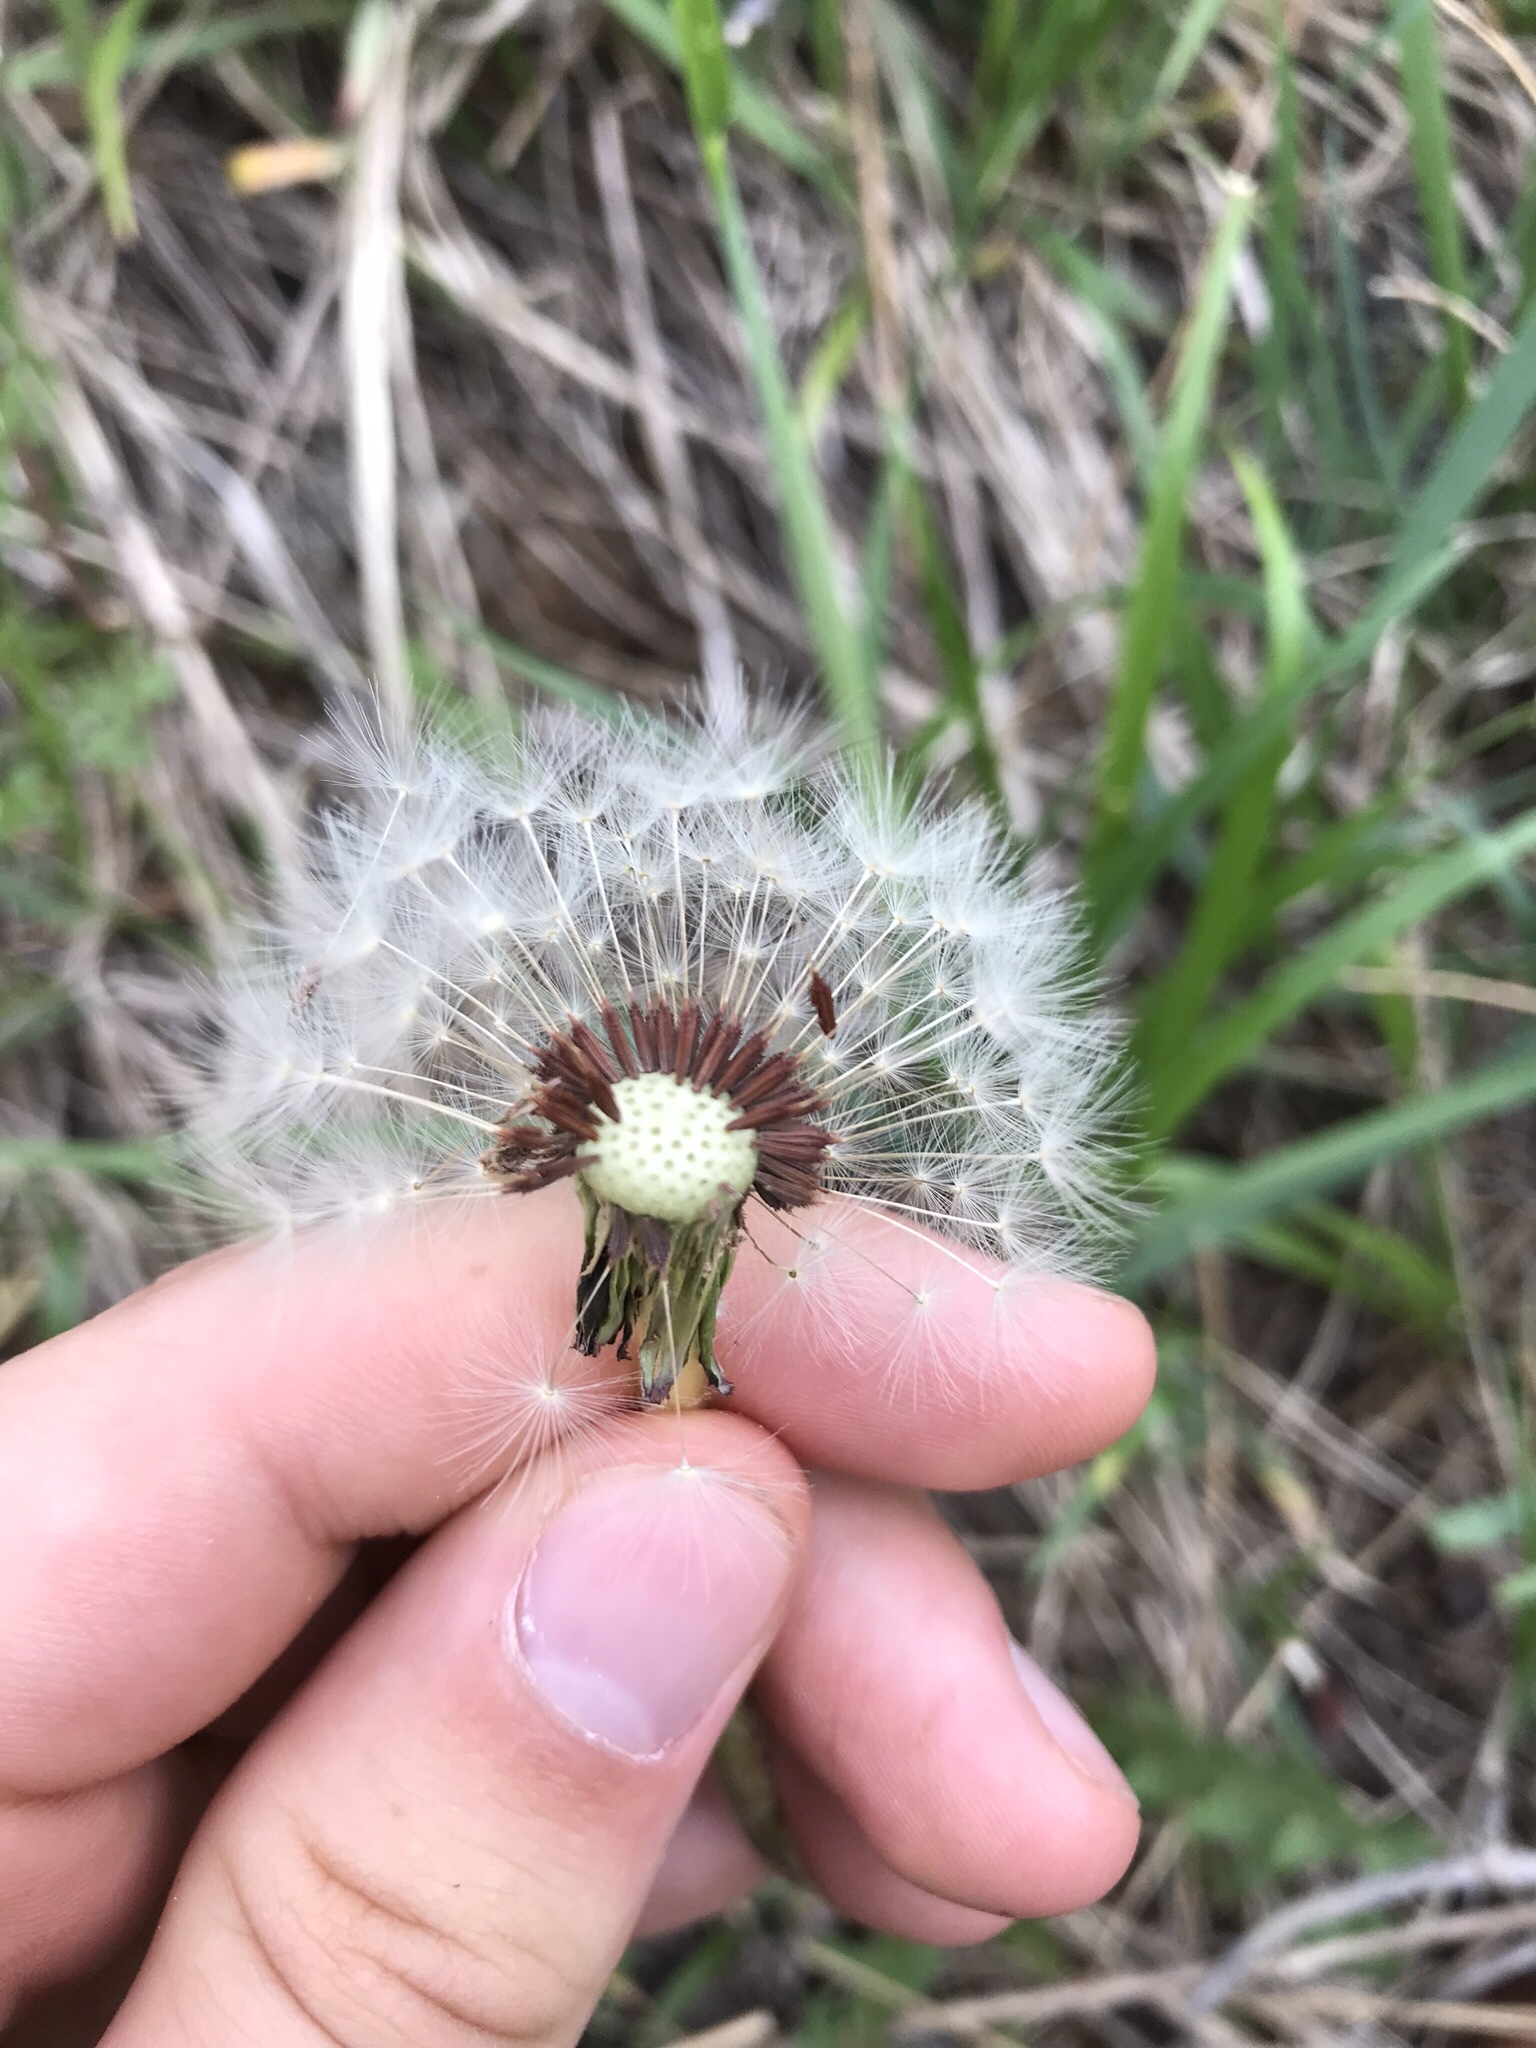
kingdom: Plantae
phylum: Tracheophyta
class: Magnoliopsida
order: Asterales
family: Asteraceae
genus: Taraxacum
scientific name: Taraxacum erythrospermum
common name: Rock dandelion
